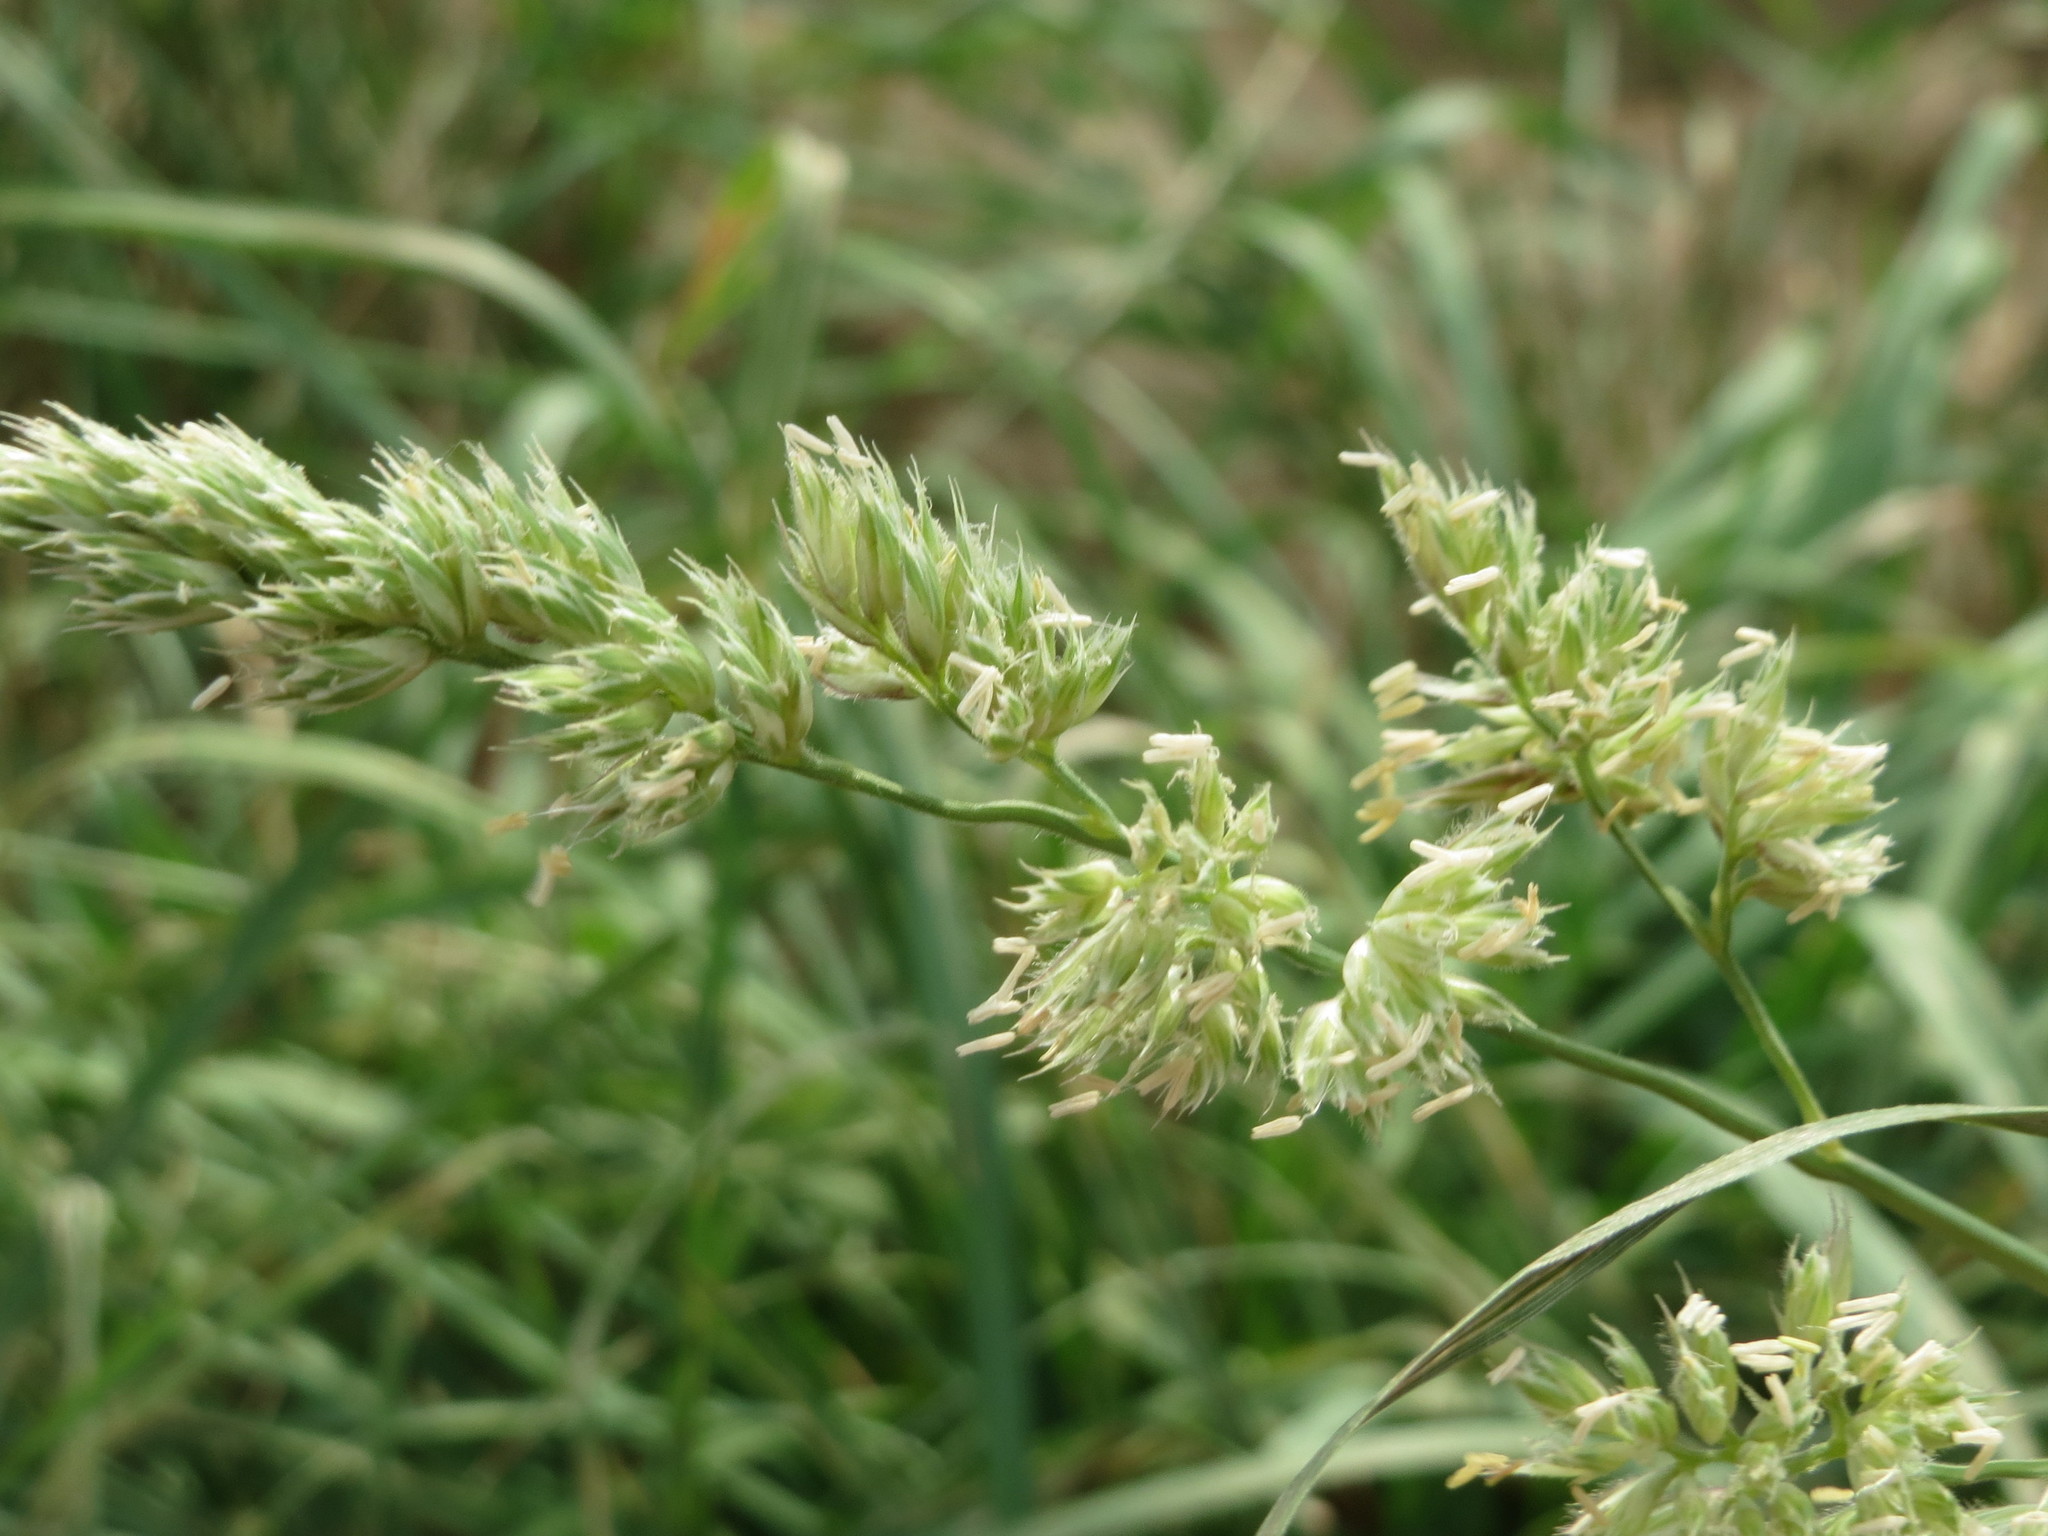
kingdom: Plantae
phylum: Tracheophyta
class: Liliopsida
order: Poales
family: Poaceae
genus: Dactylis
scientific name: Dactylis glomerata
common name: Orchardgrass
